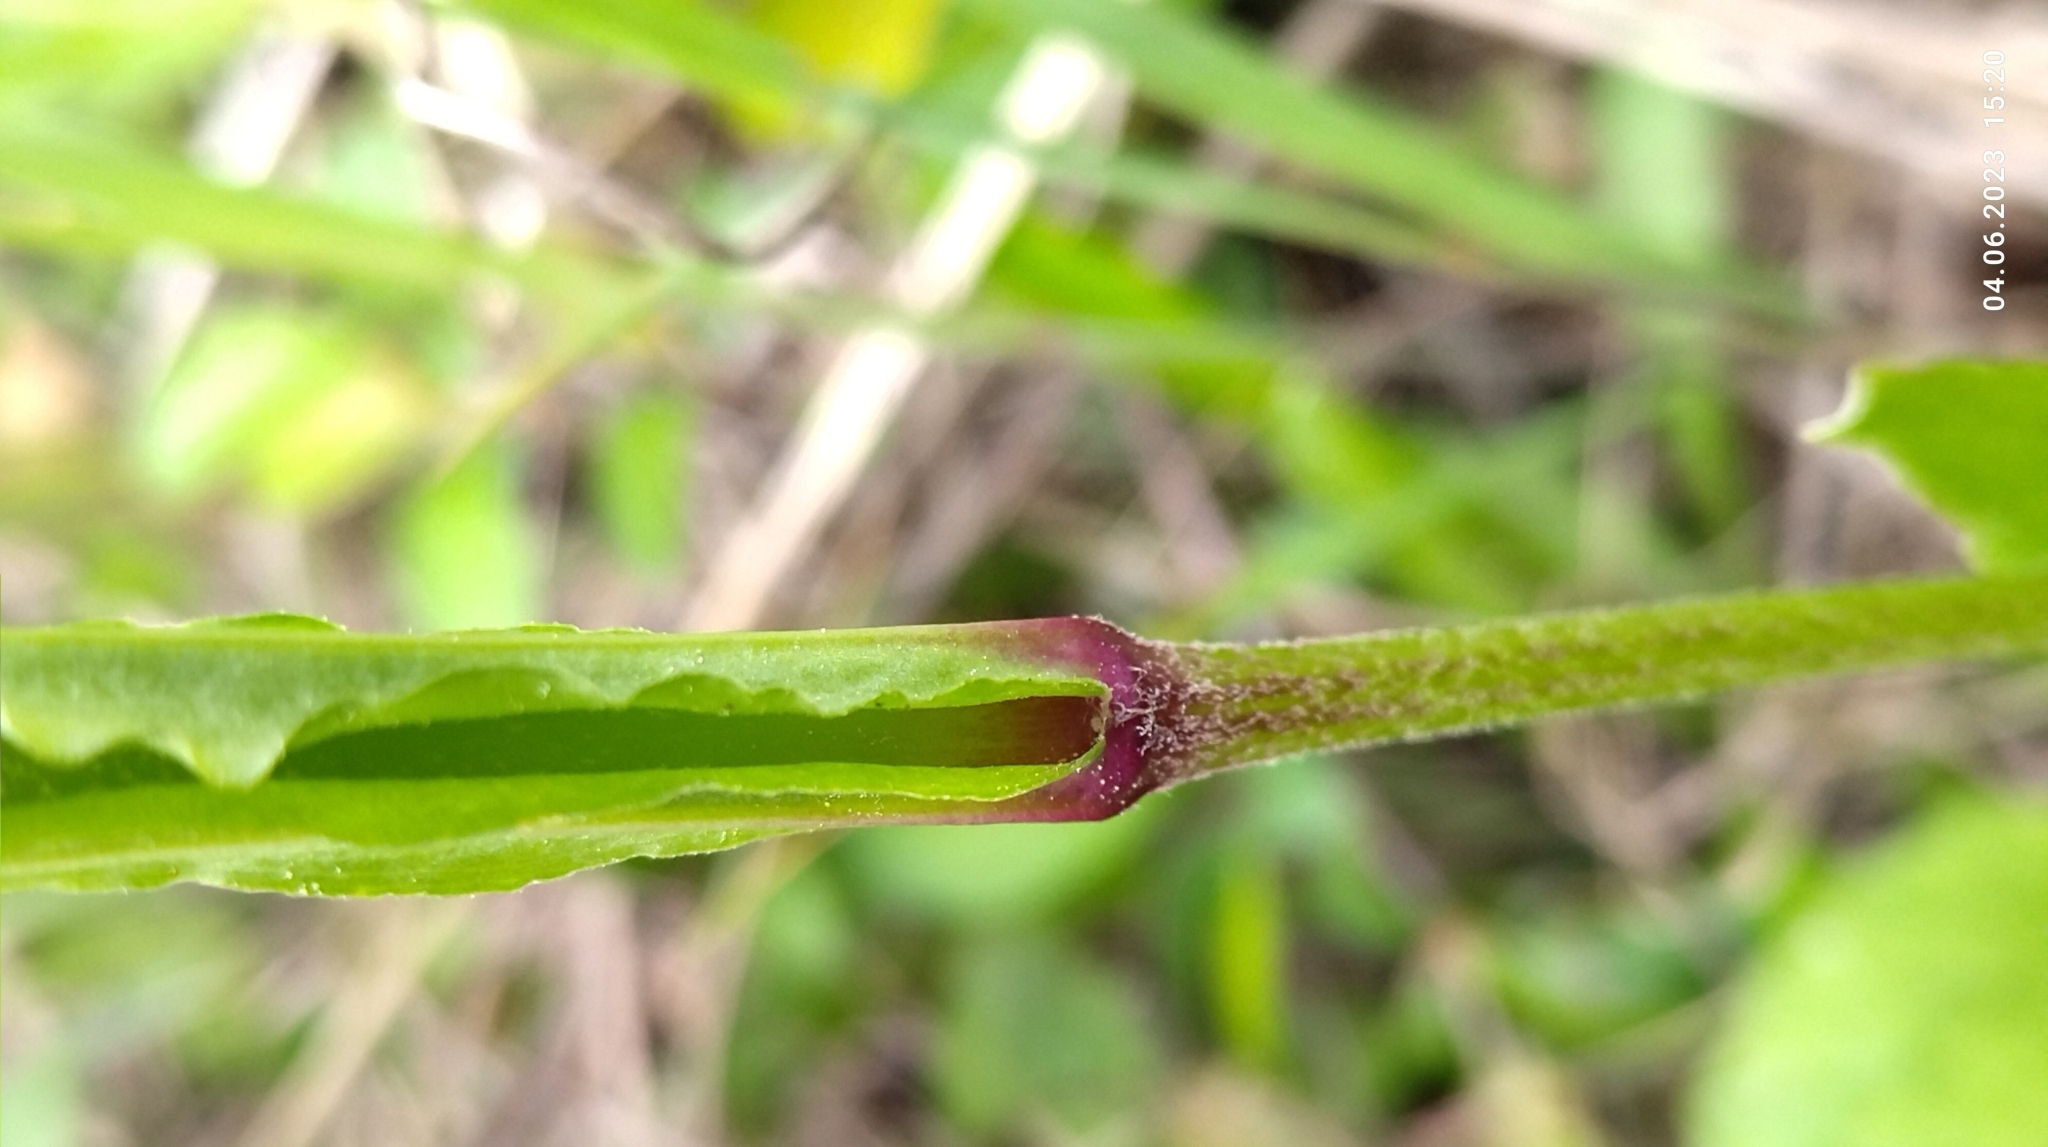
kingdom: Plantae
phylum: Tracheophyta
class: Magnoliopsida
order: Caryophyllales
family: Caryophyllaceae
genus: Silene
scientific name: Silene flos-cuculi
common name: Ragged-robin
